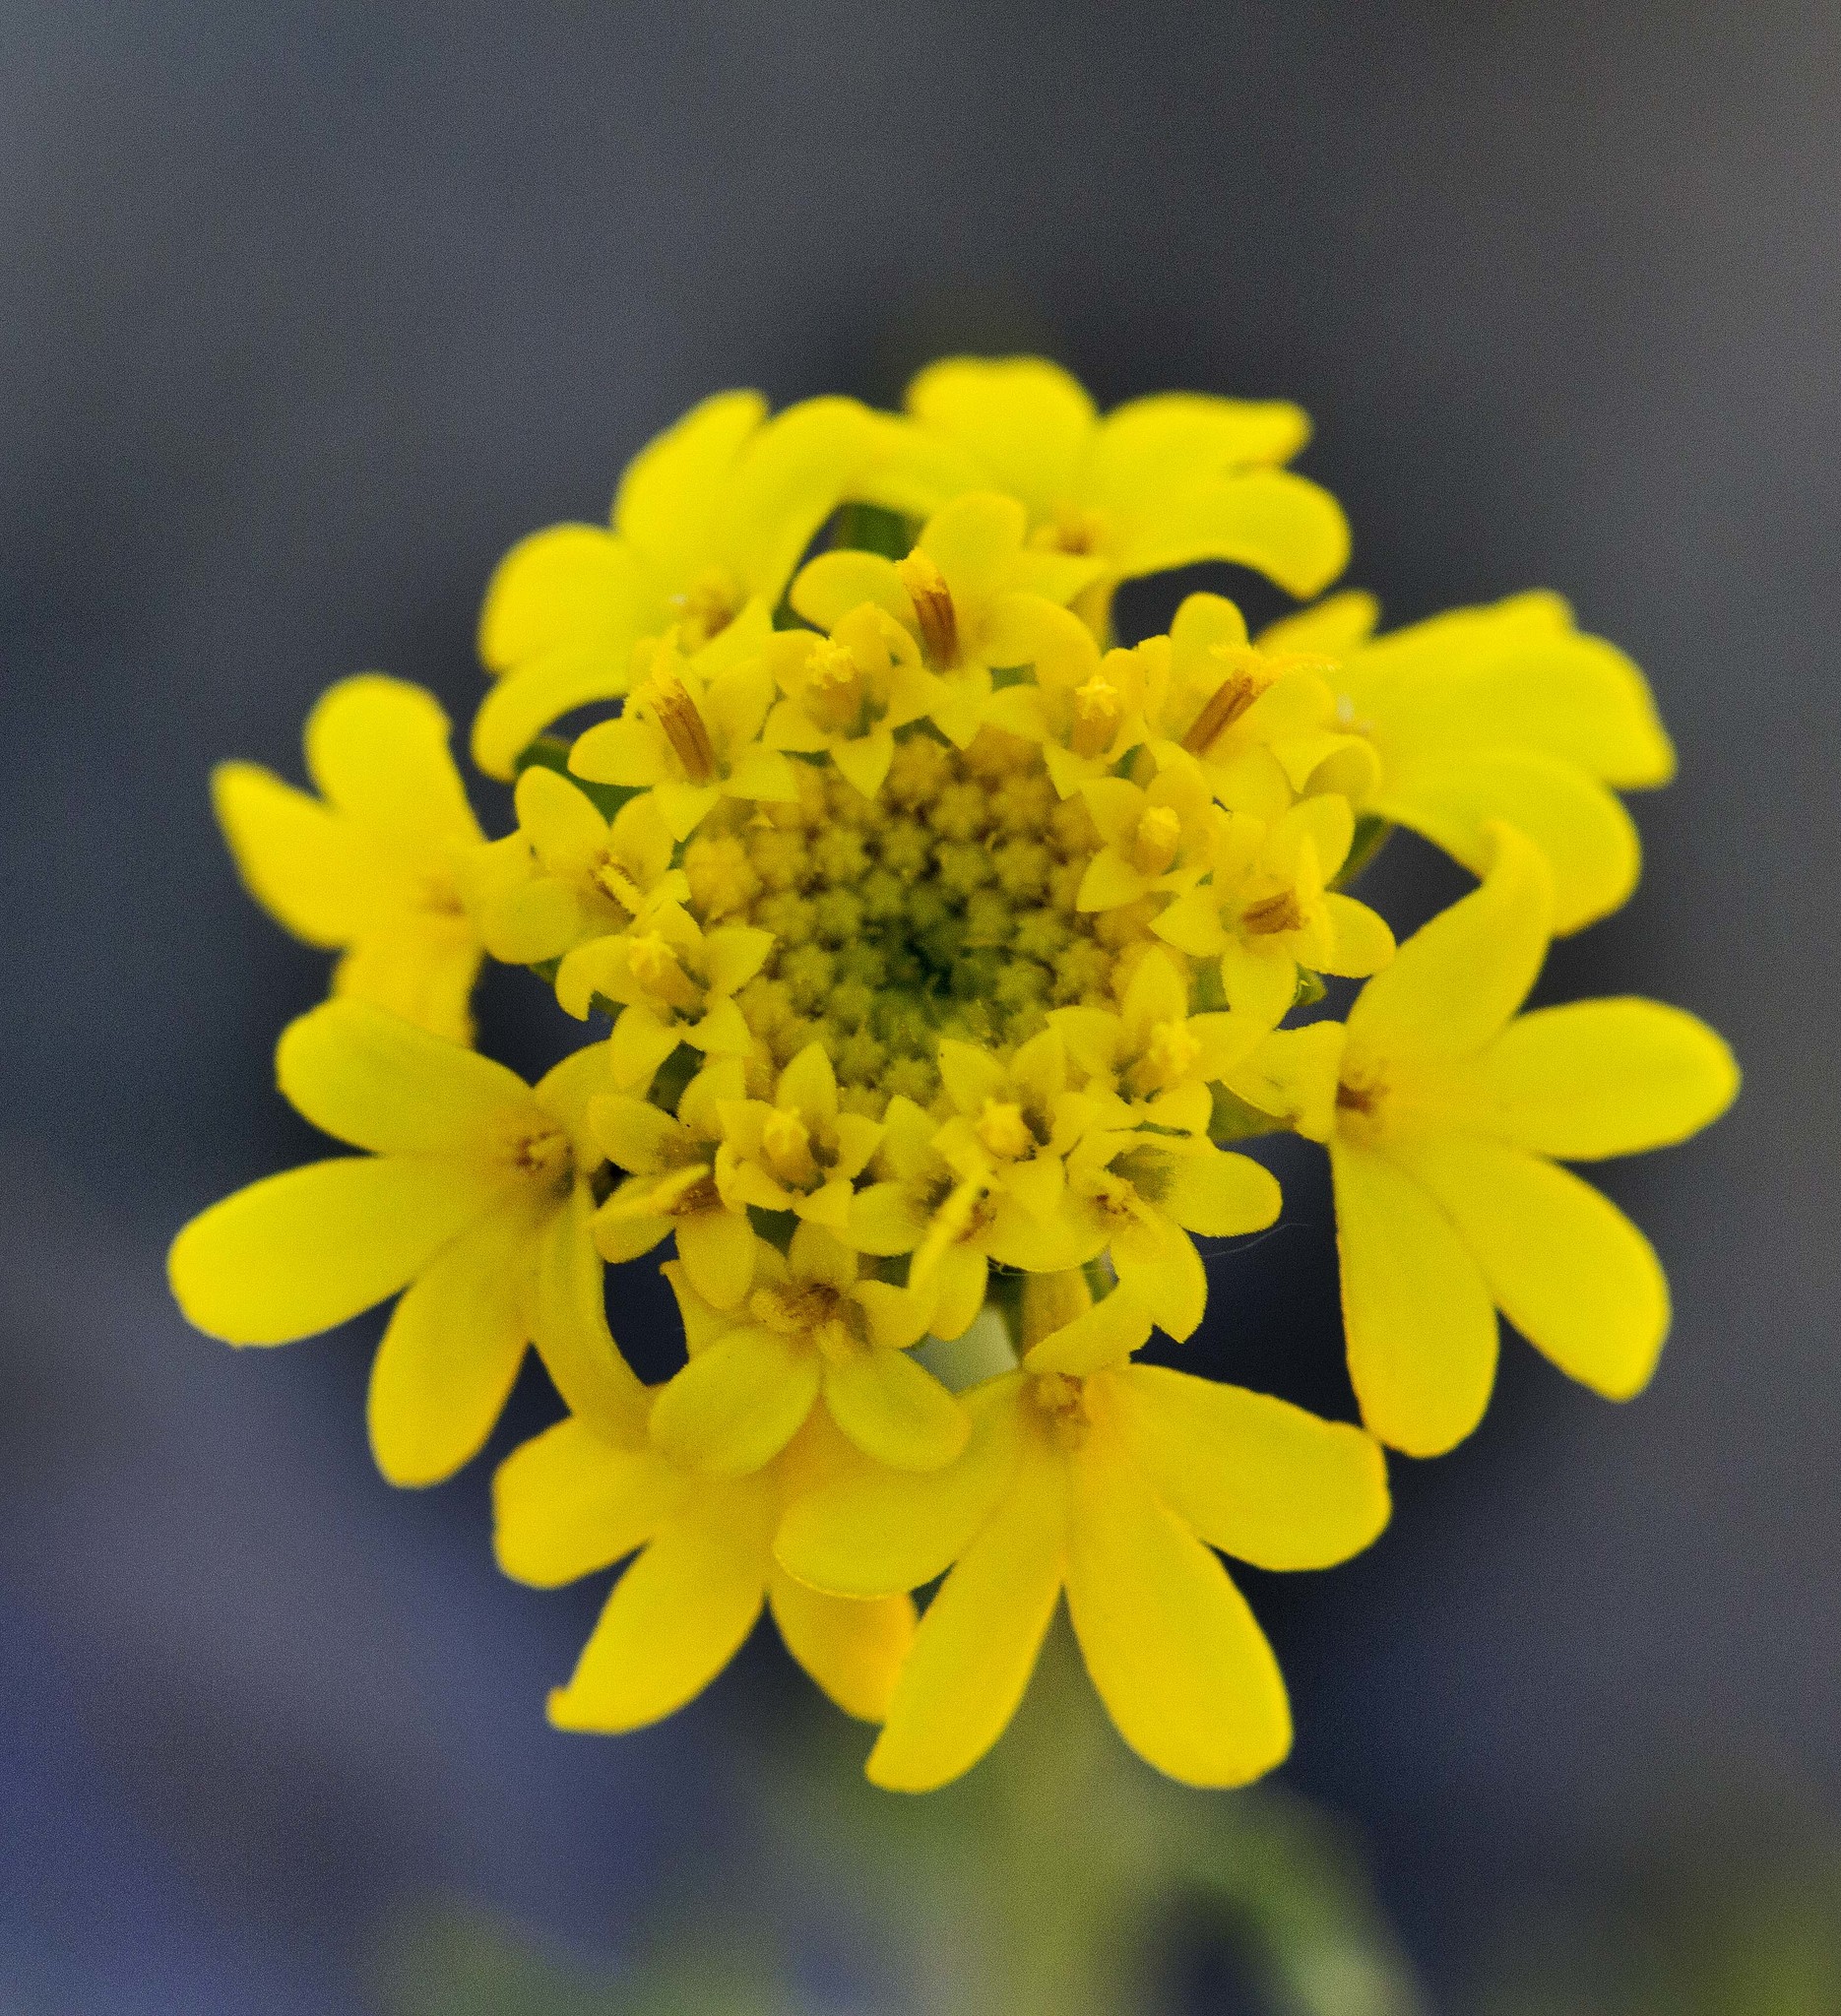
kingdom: Plantae
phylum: Tracheophyta
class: Magnoliopsida
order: Asterales
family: Asteraceae
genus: Chaenactis
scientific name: Chaenactis glabriuscula
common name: Yellow pincushion
